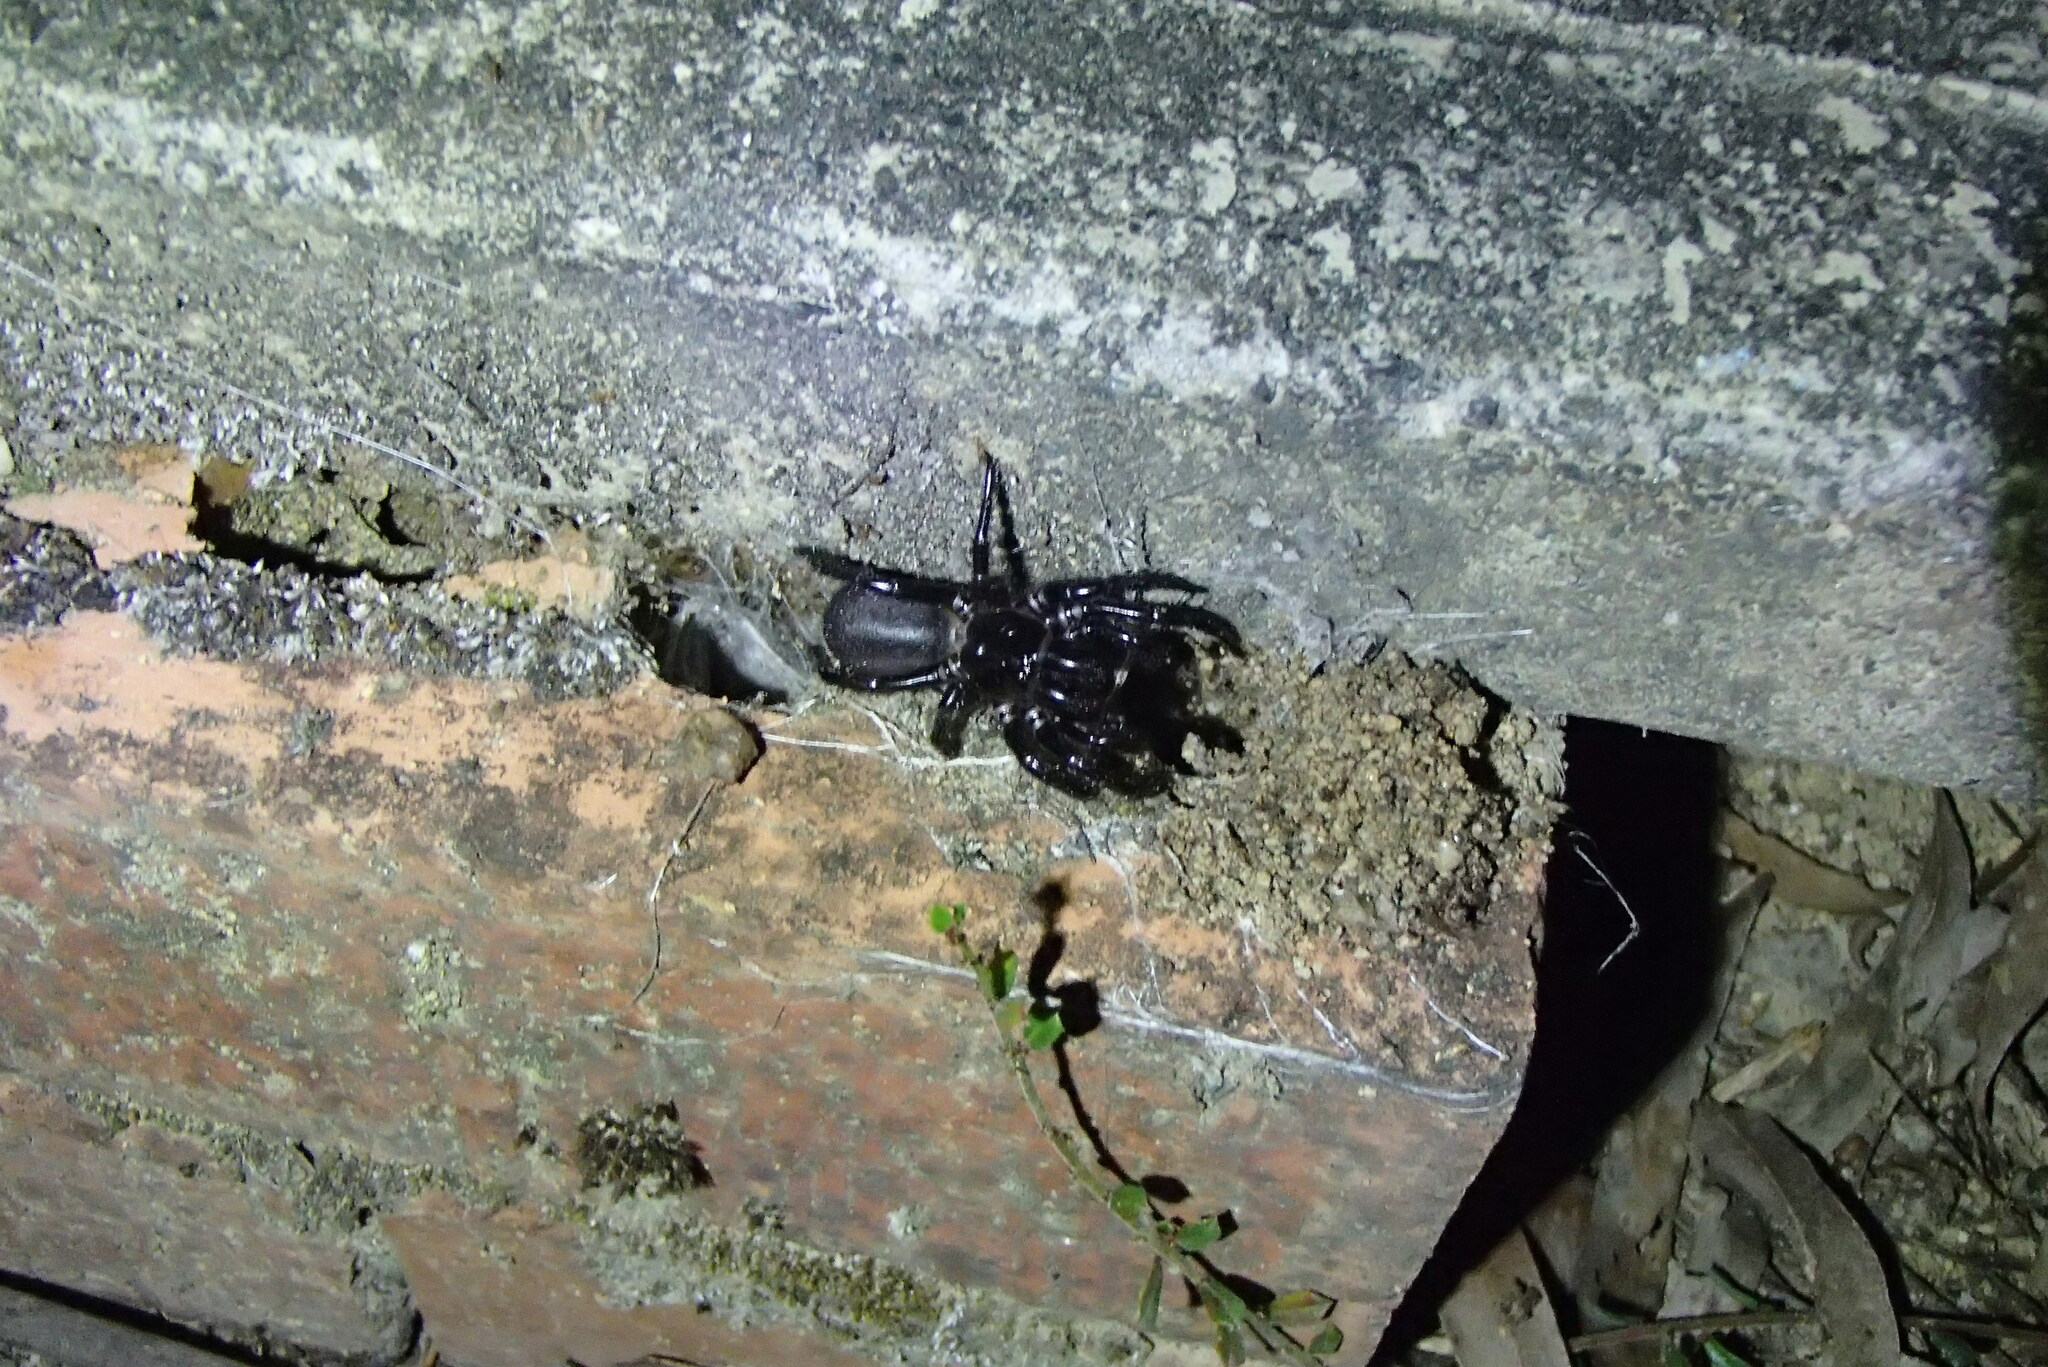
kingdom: Animalia
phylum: Arthropoda
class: Arachnida
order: Araneae
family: Atracidae
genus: Hadronyche
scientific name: Hadronyche versuta
